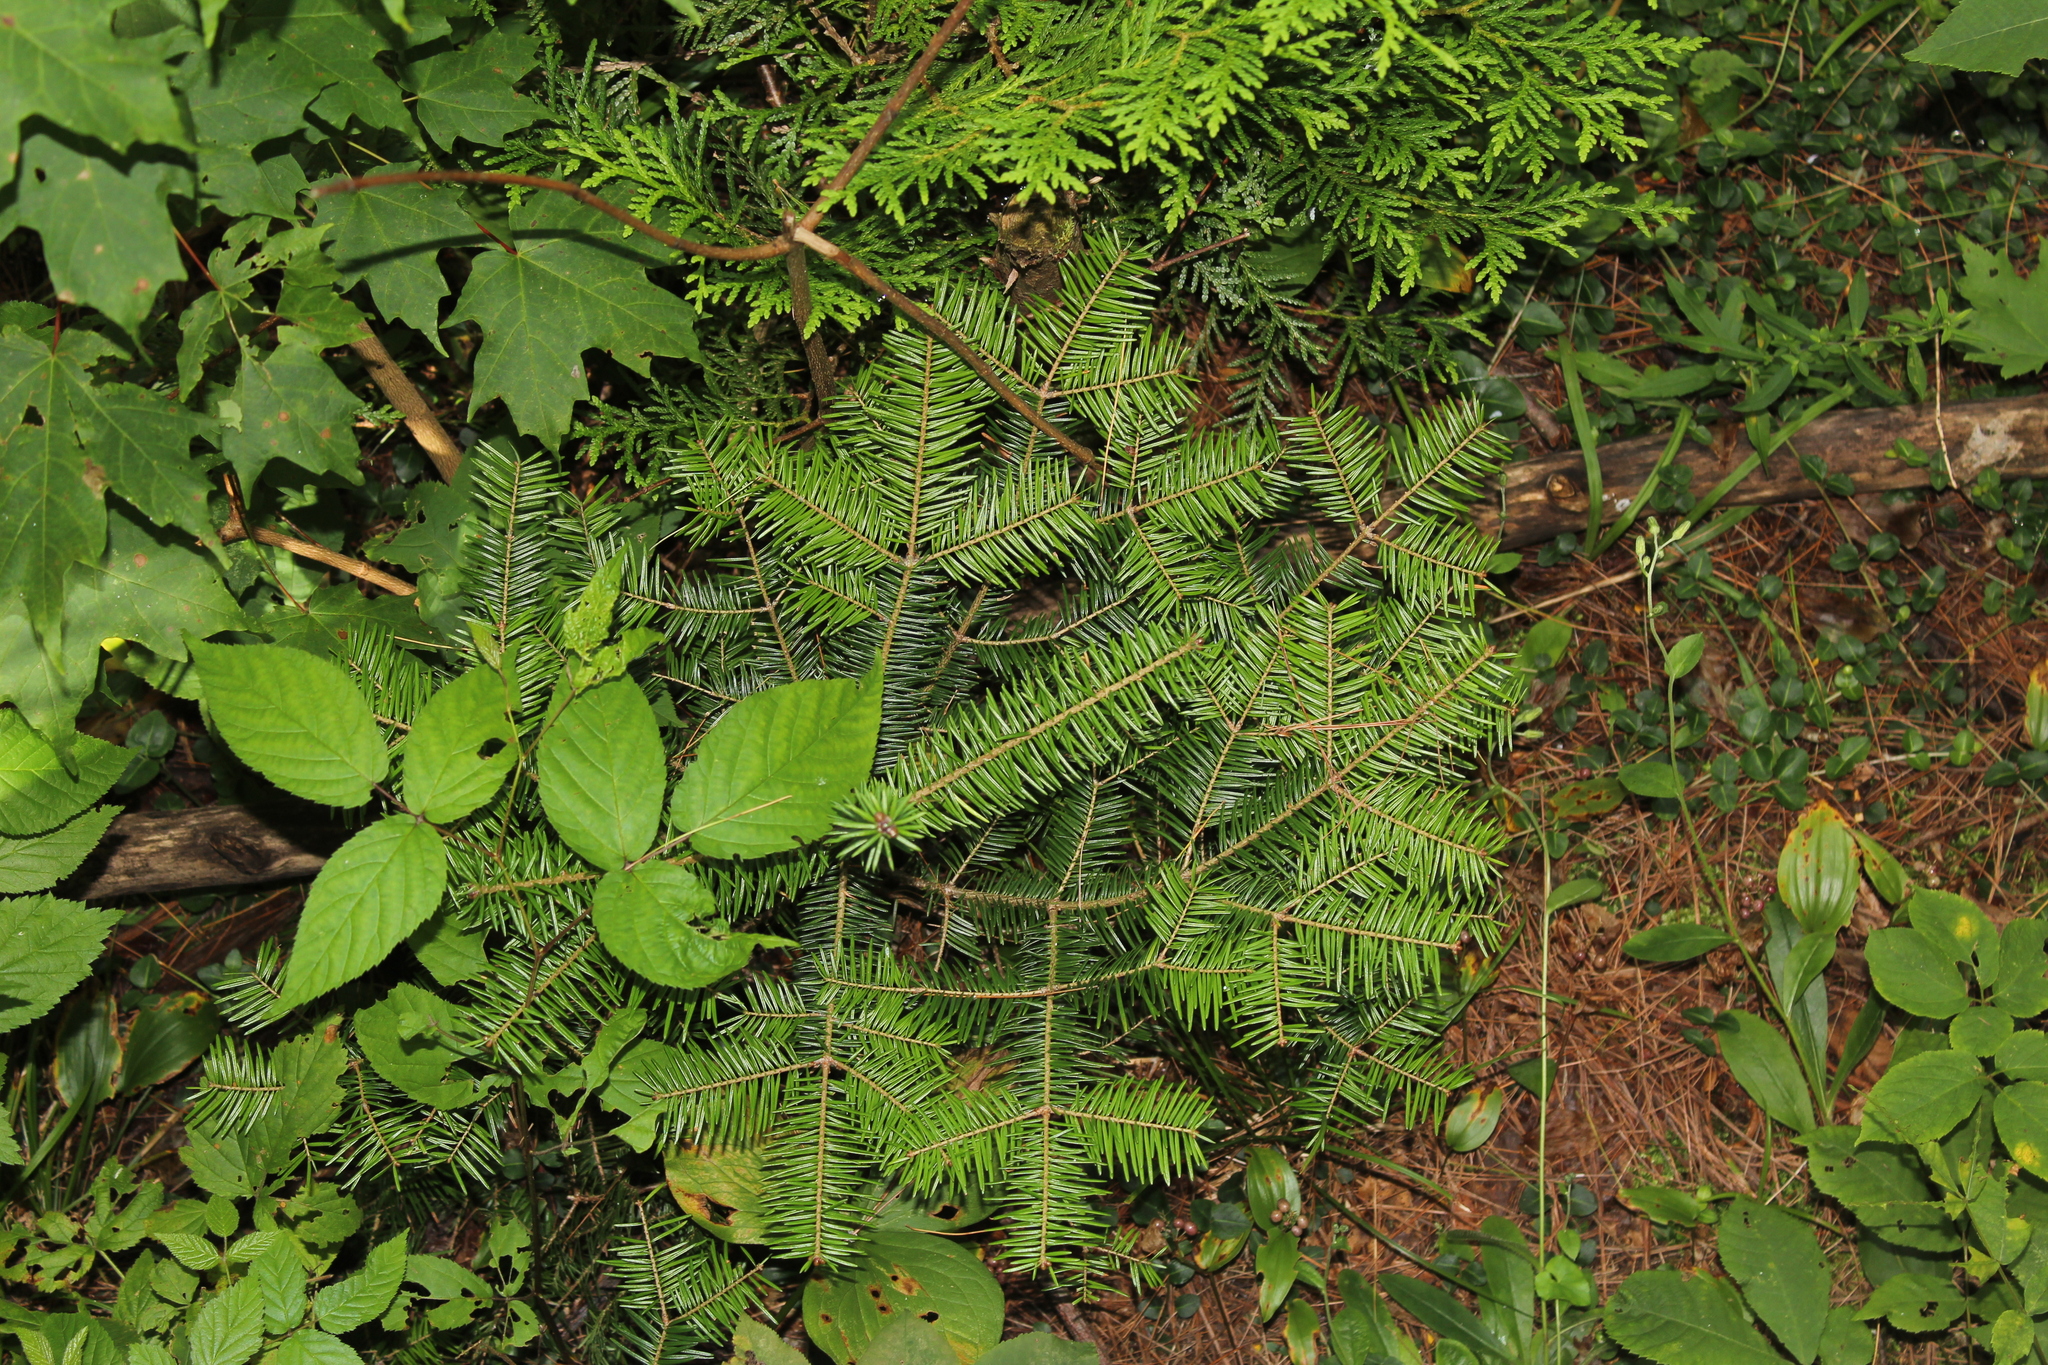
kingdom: Plantae
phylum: Tracheophyta
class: Pinopsida
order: Pinales
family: Pinaceae
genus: Abies
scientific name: Abies balsamea
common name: Balsam fir
